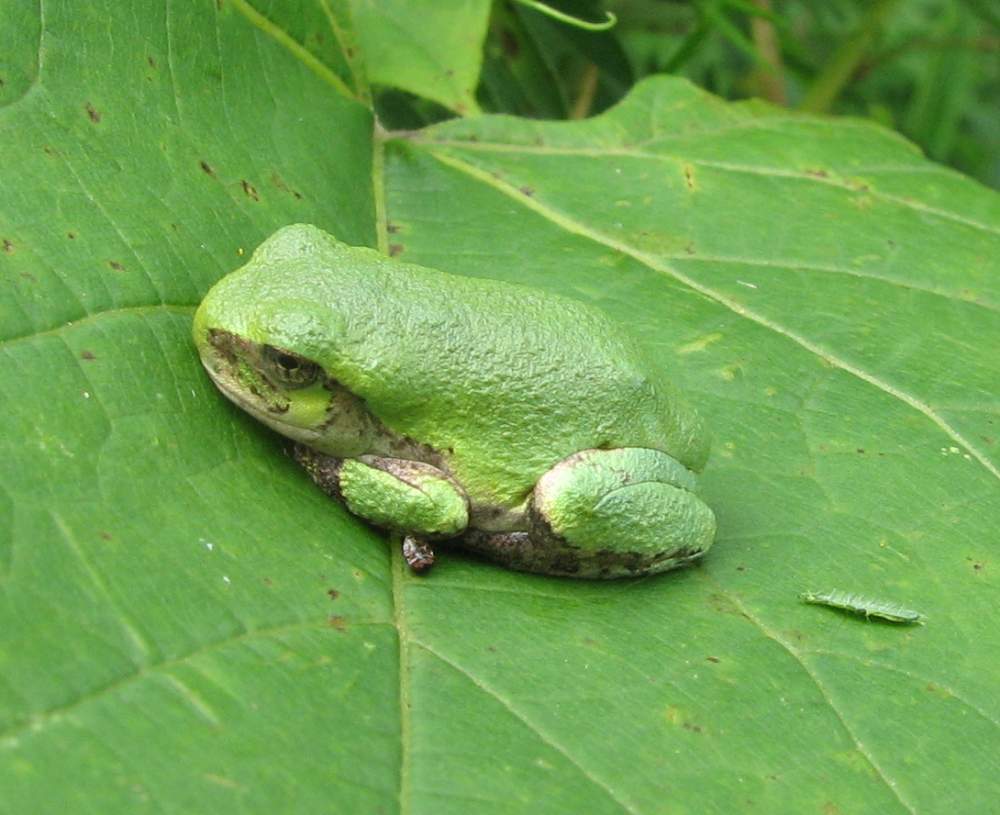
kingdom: Animalia
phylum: Chordata
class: Amphibia
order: Anura
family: Hylidae
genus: Dryophytes
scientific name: Dryophytes versicolor
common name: Gray treefrog
